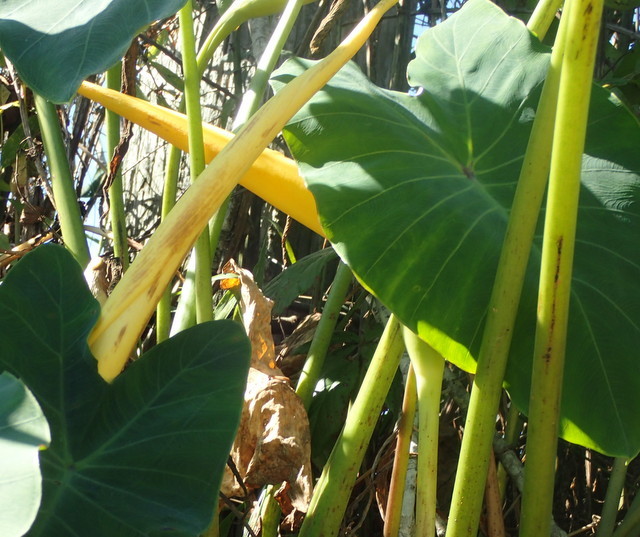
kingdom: Plantae
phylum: Tracheophyta
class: Liliopsida
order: Alismatales
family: Araceae
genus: Colocasia
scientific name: Colocasia esculenta
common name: Taro
